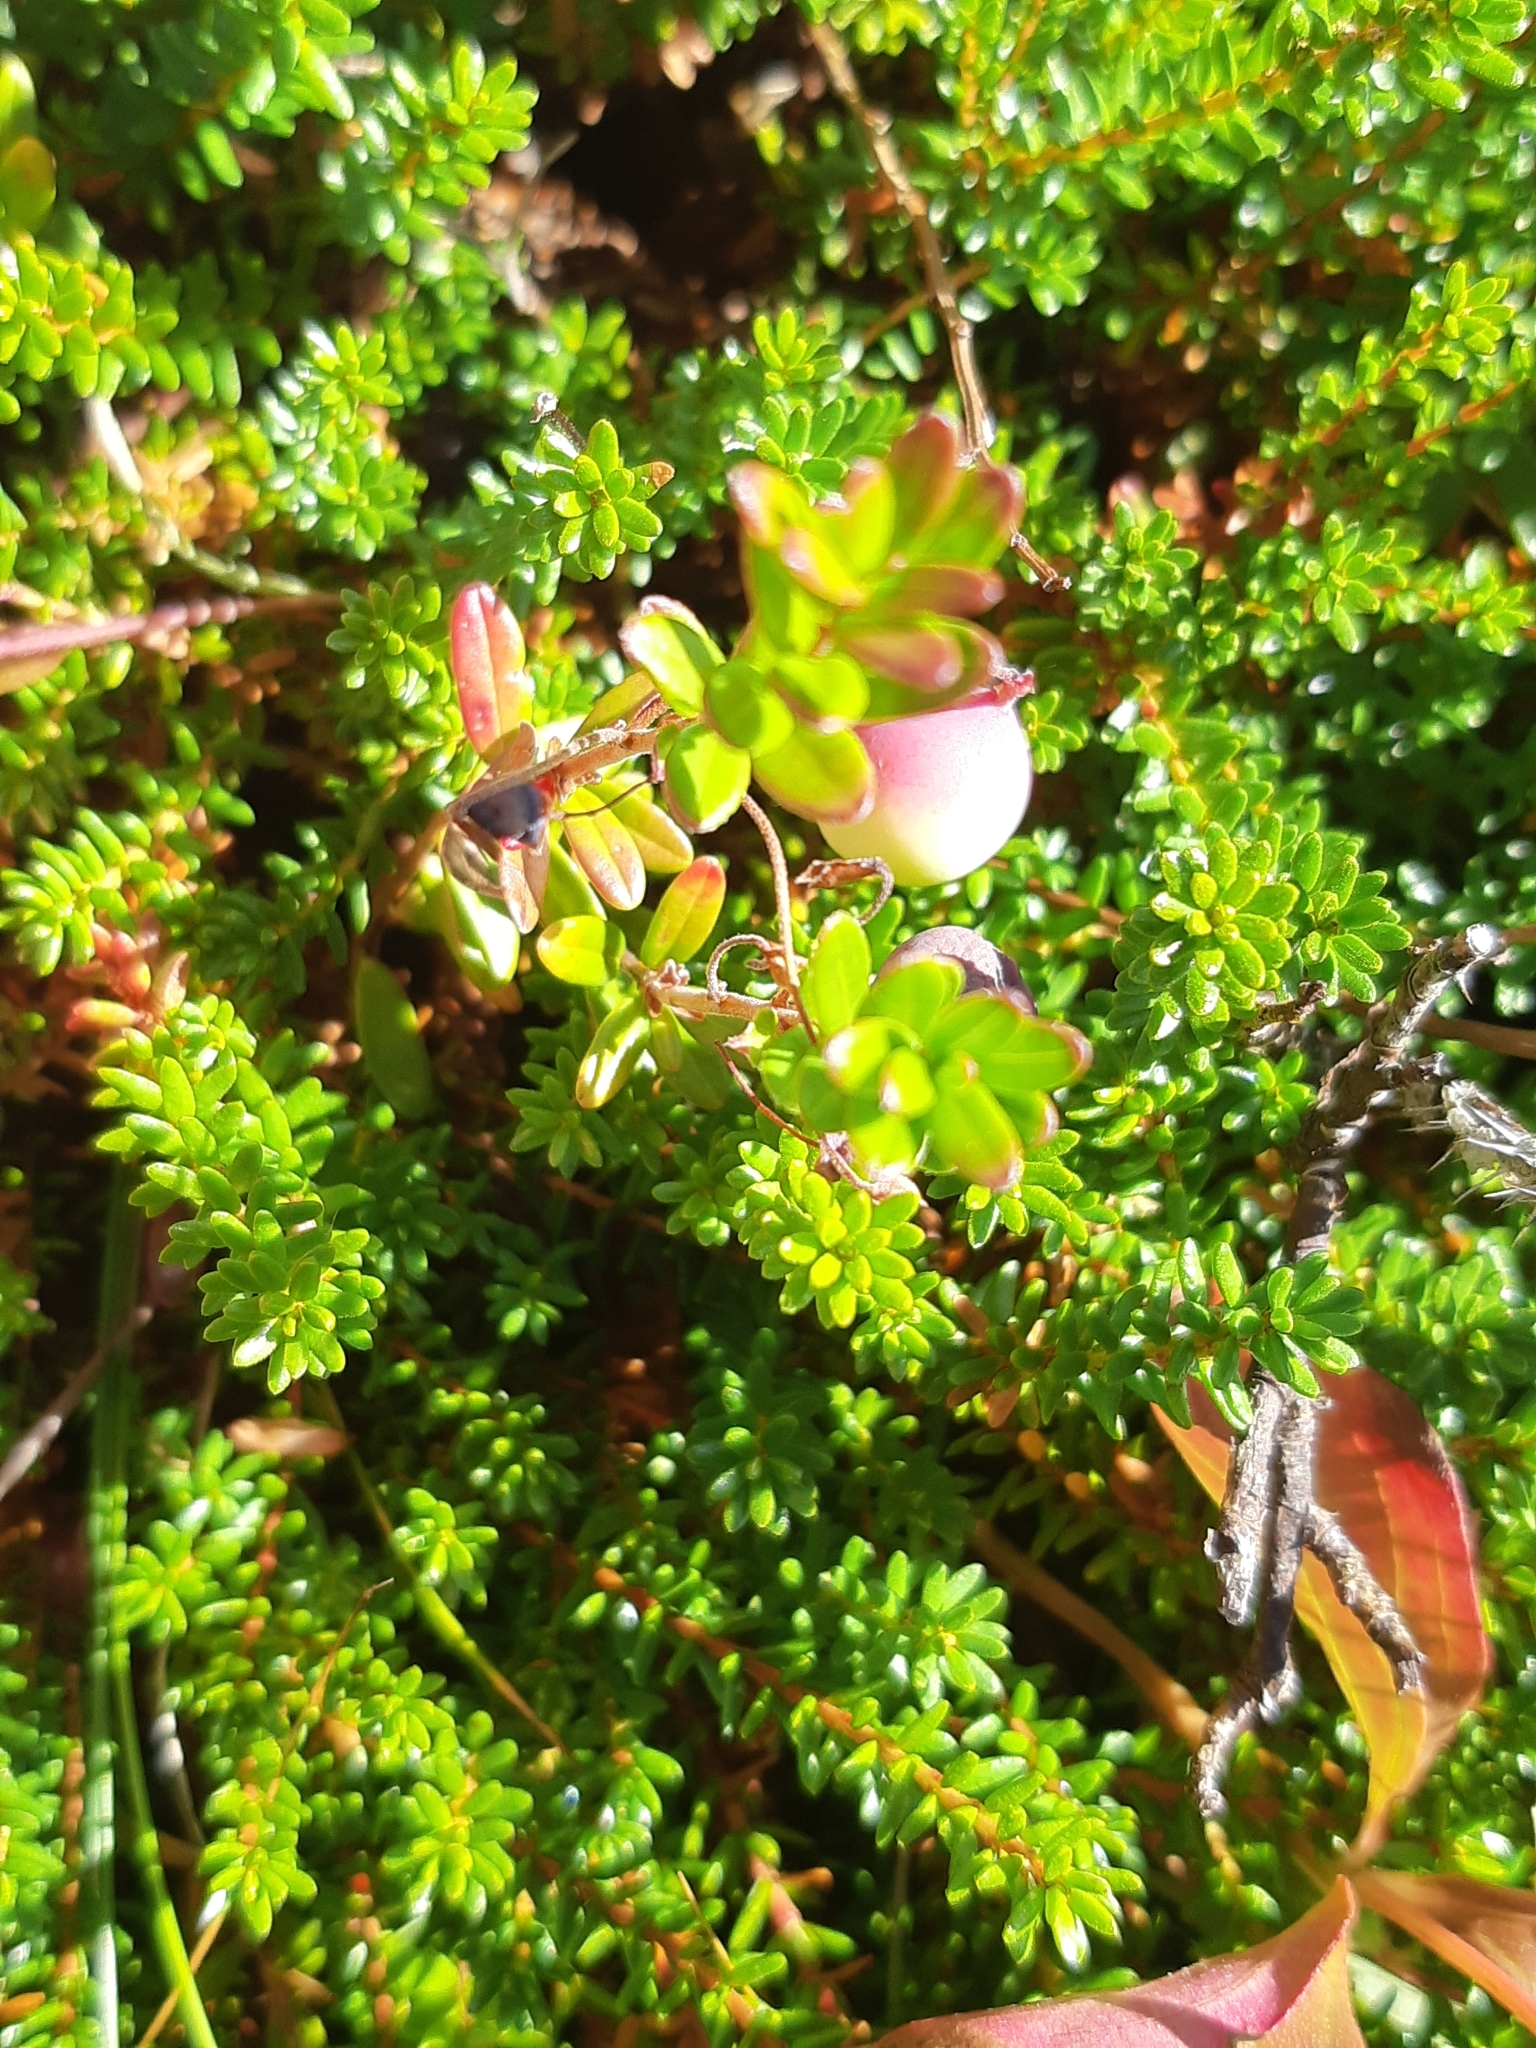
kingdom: Plantae
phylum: Tracheophyta
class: Magnoliopsida
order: Ericales
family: Ericaceae
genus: Vaccinium
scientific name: Vaccinium macrocarpon
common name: American cranberry
